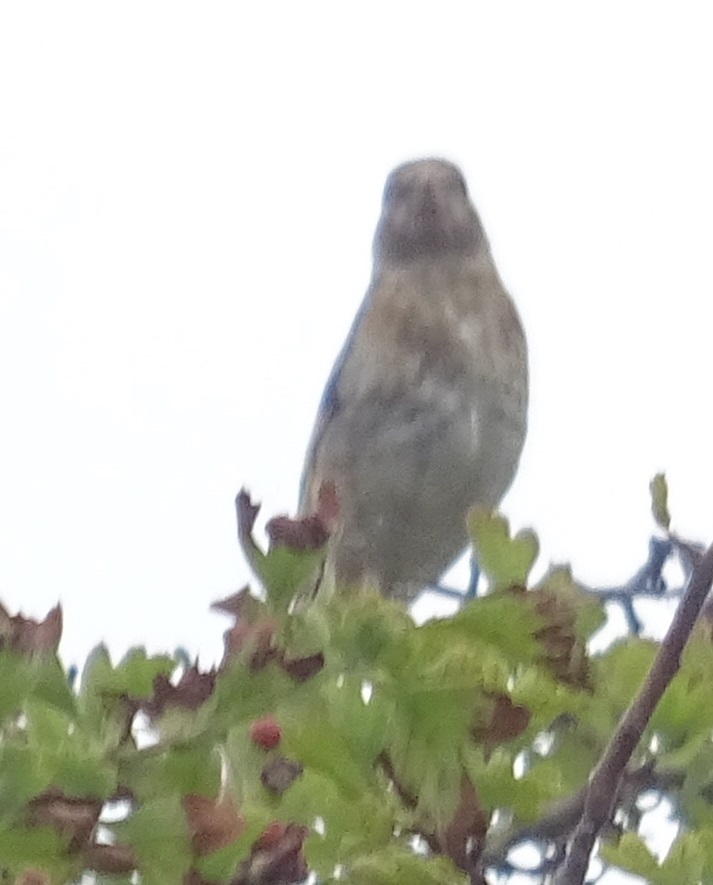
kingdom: Animalia
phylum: Chordata
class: Aves
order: Passeriformes
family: Fringillidae
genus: Carduelis
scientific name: Carduelis carduelis
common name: European goldfinch
